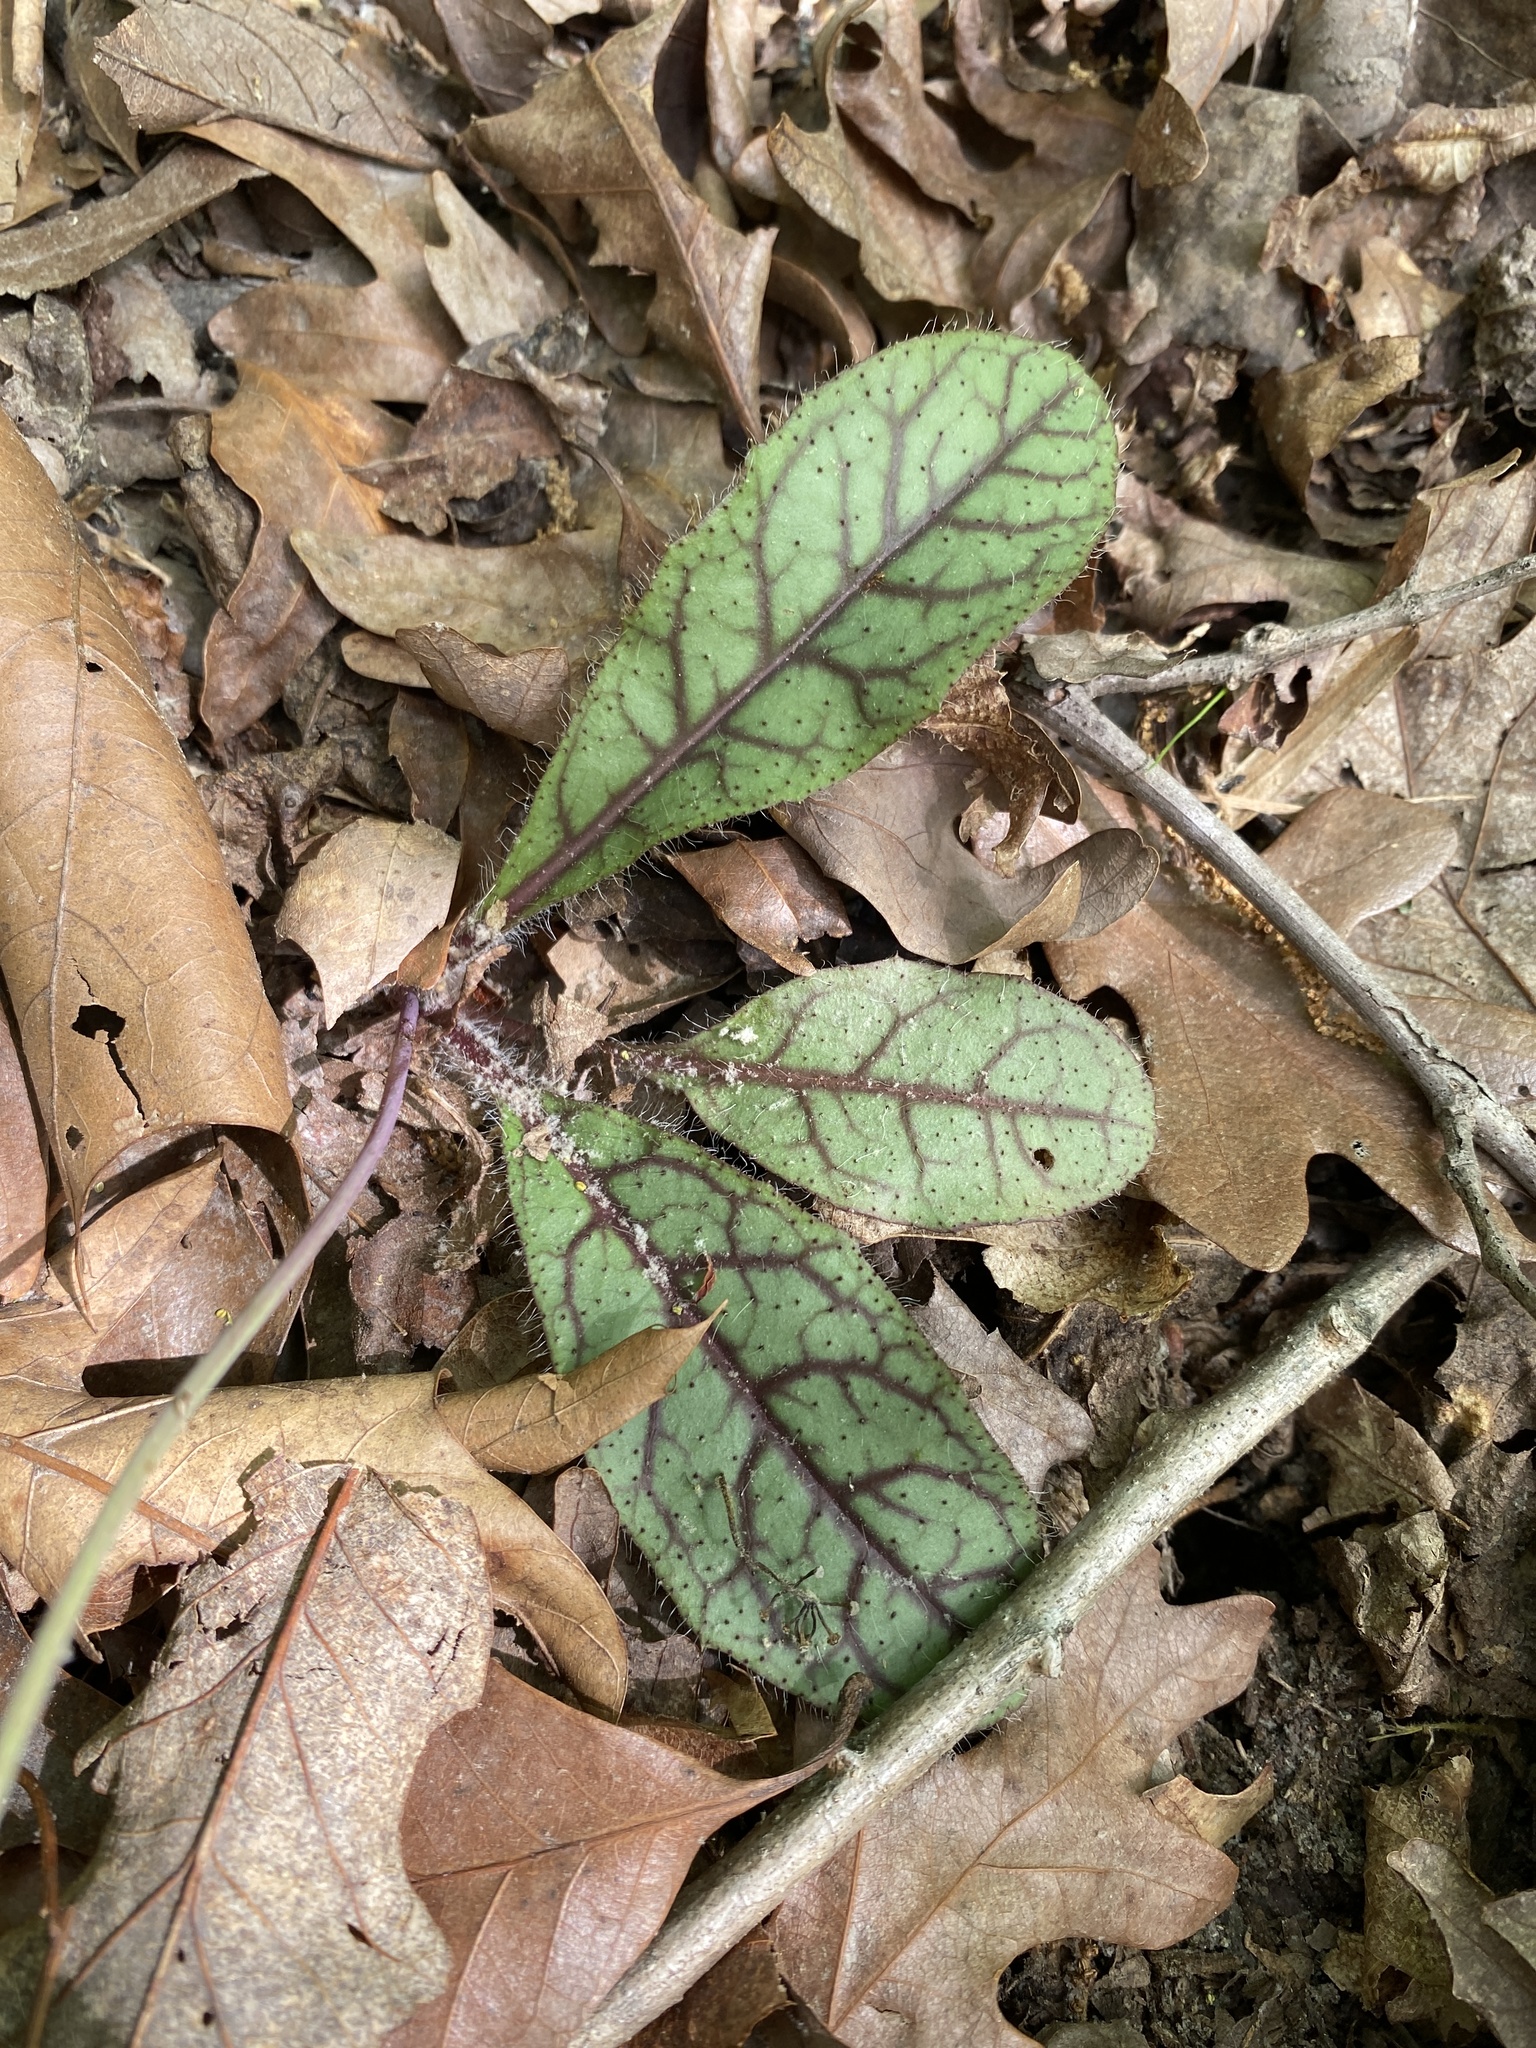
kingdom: Plantae
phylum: Tracheophyta
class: Magnoliopsida
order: Asterales
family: Asteraceae
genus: Hieracium
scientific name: Hieracium venosum
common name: Rattlesnake hawkweed
